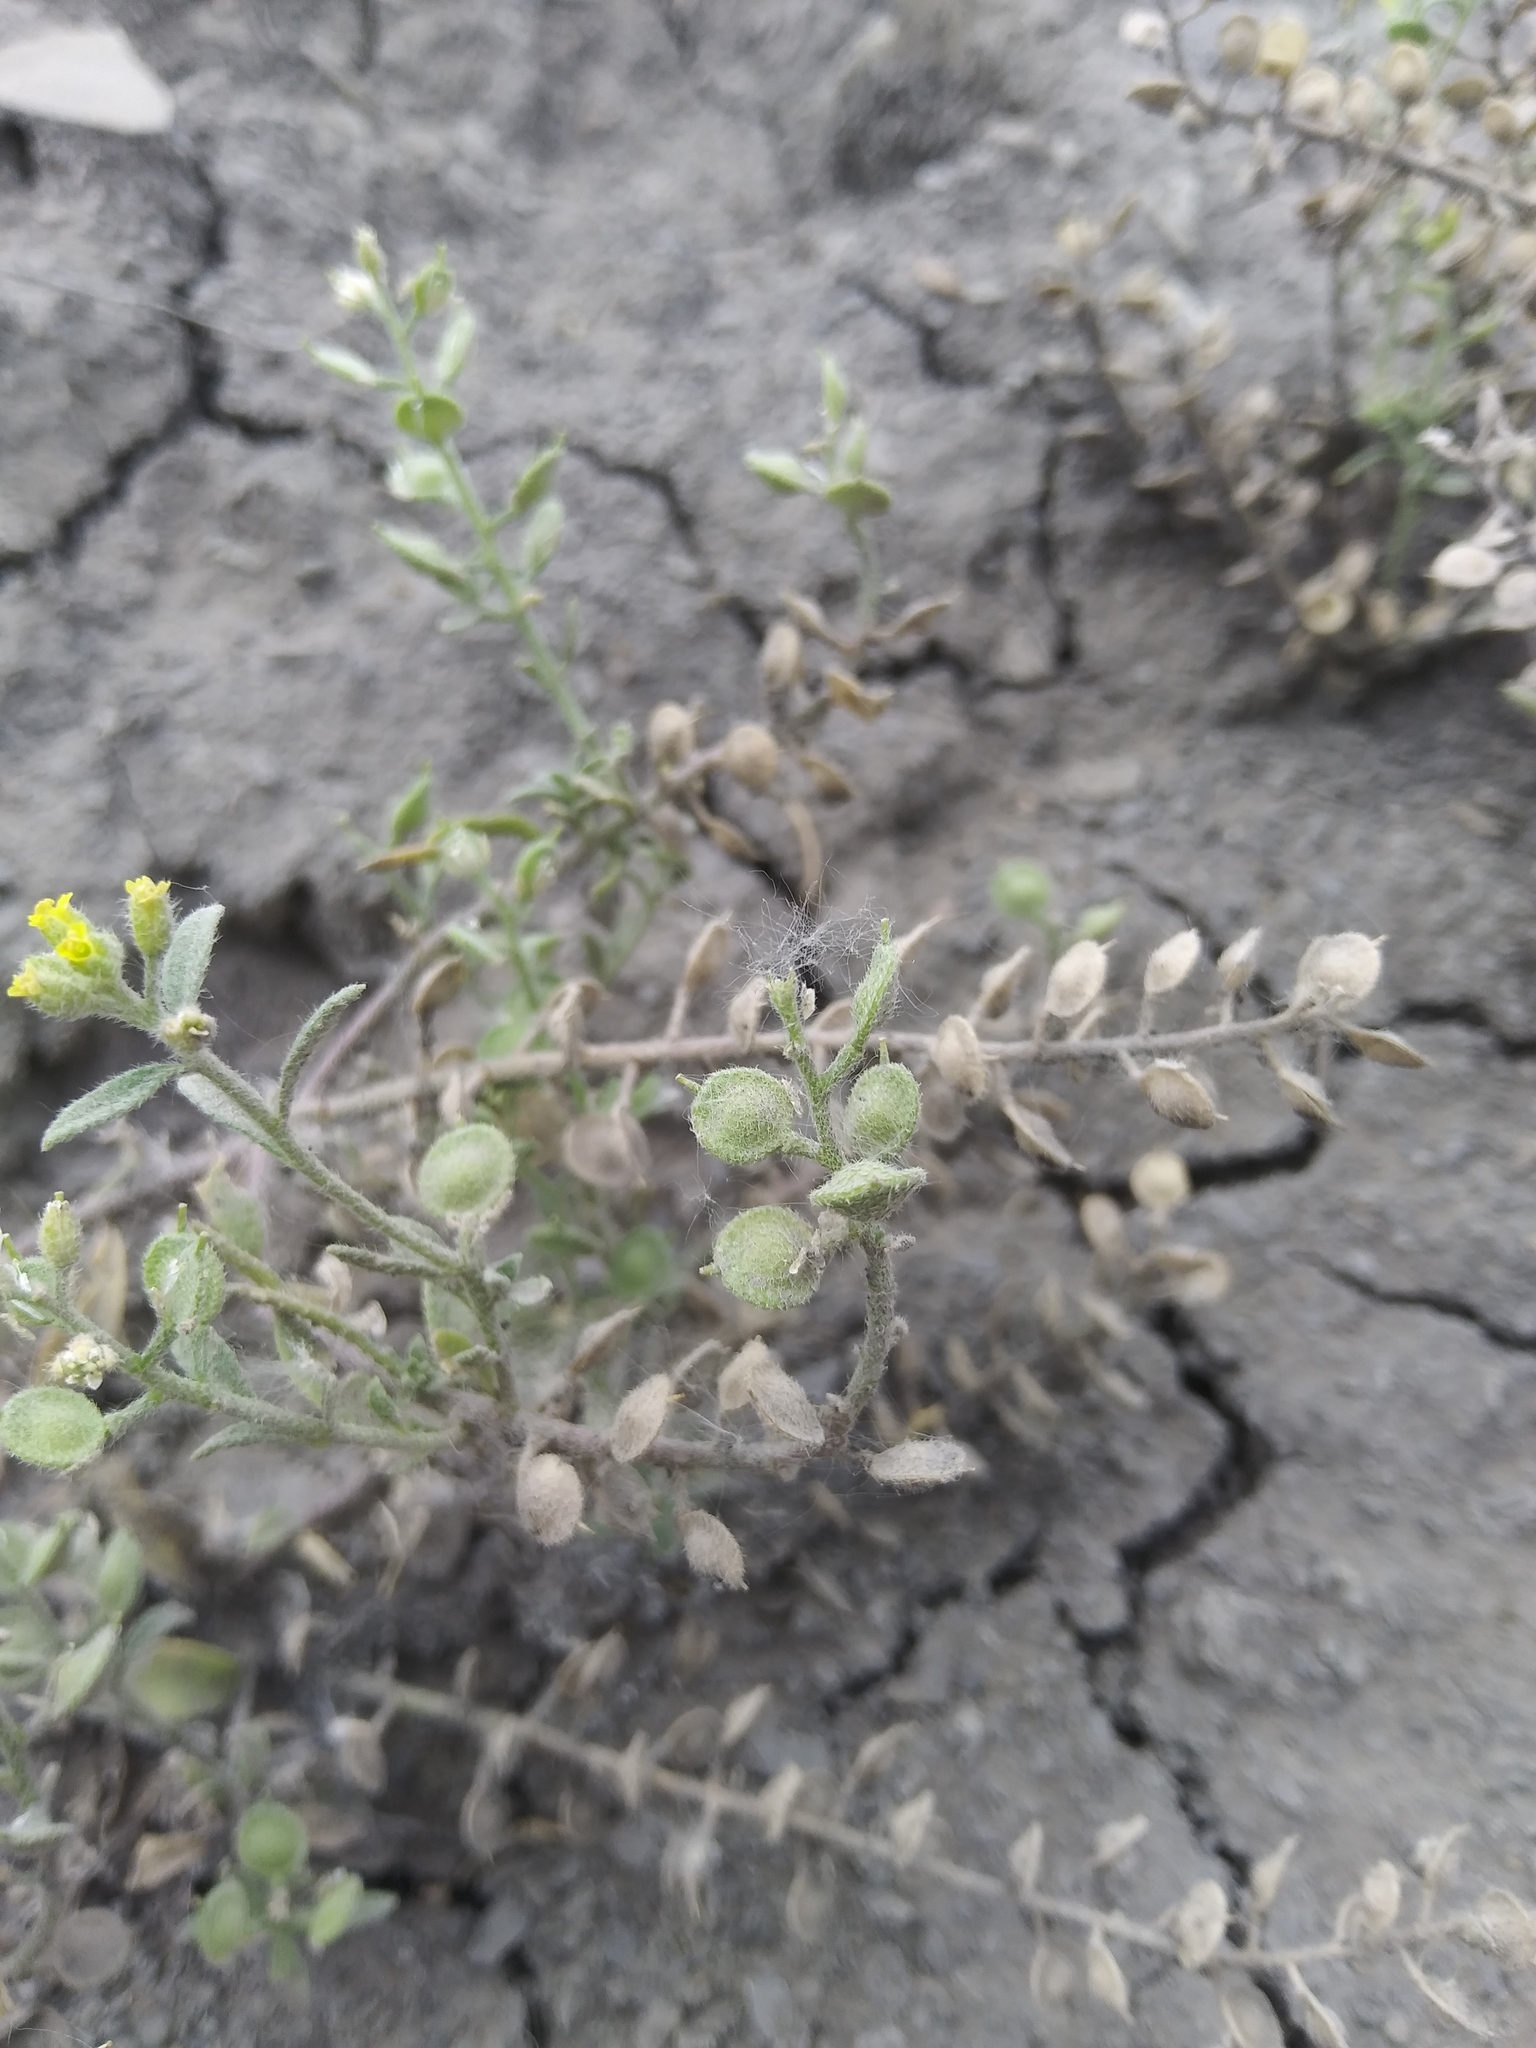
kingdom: Plantae
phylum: Tracheophyta
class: Magnoliopsida
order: Brassicales
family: Brassicaceae
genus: Alyssum
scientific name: Alyssum simplex
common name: Alyssum
